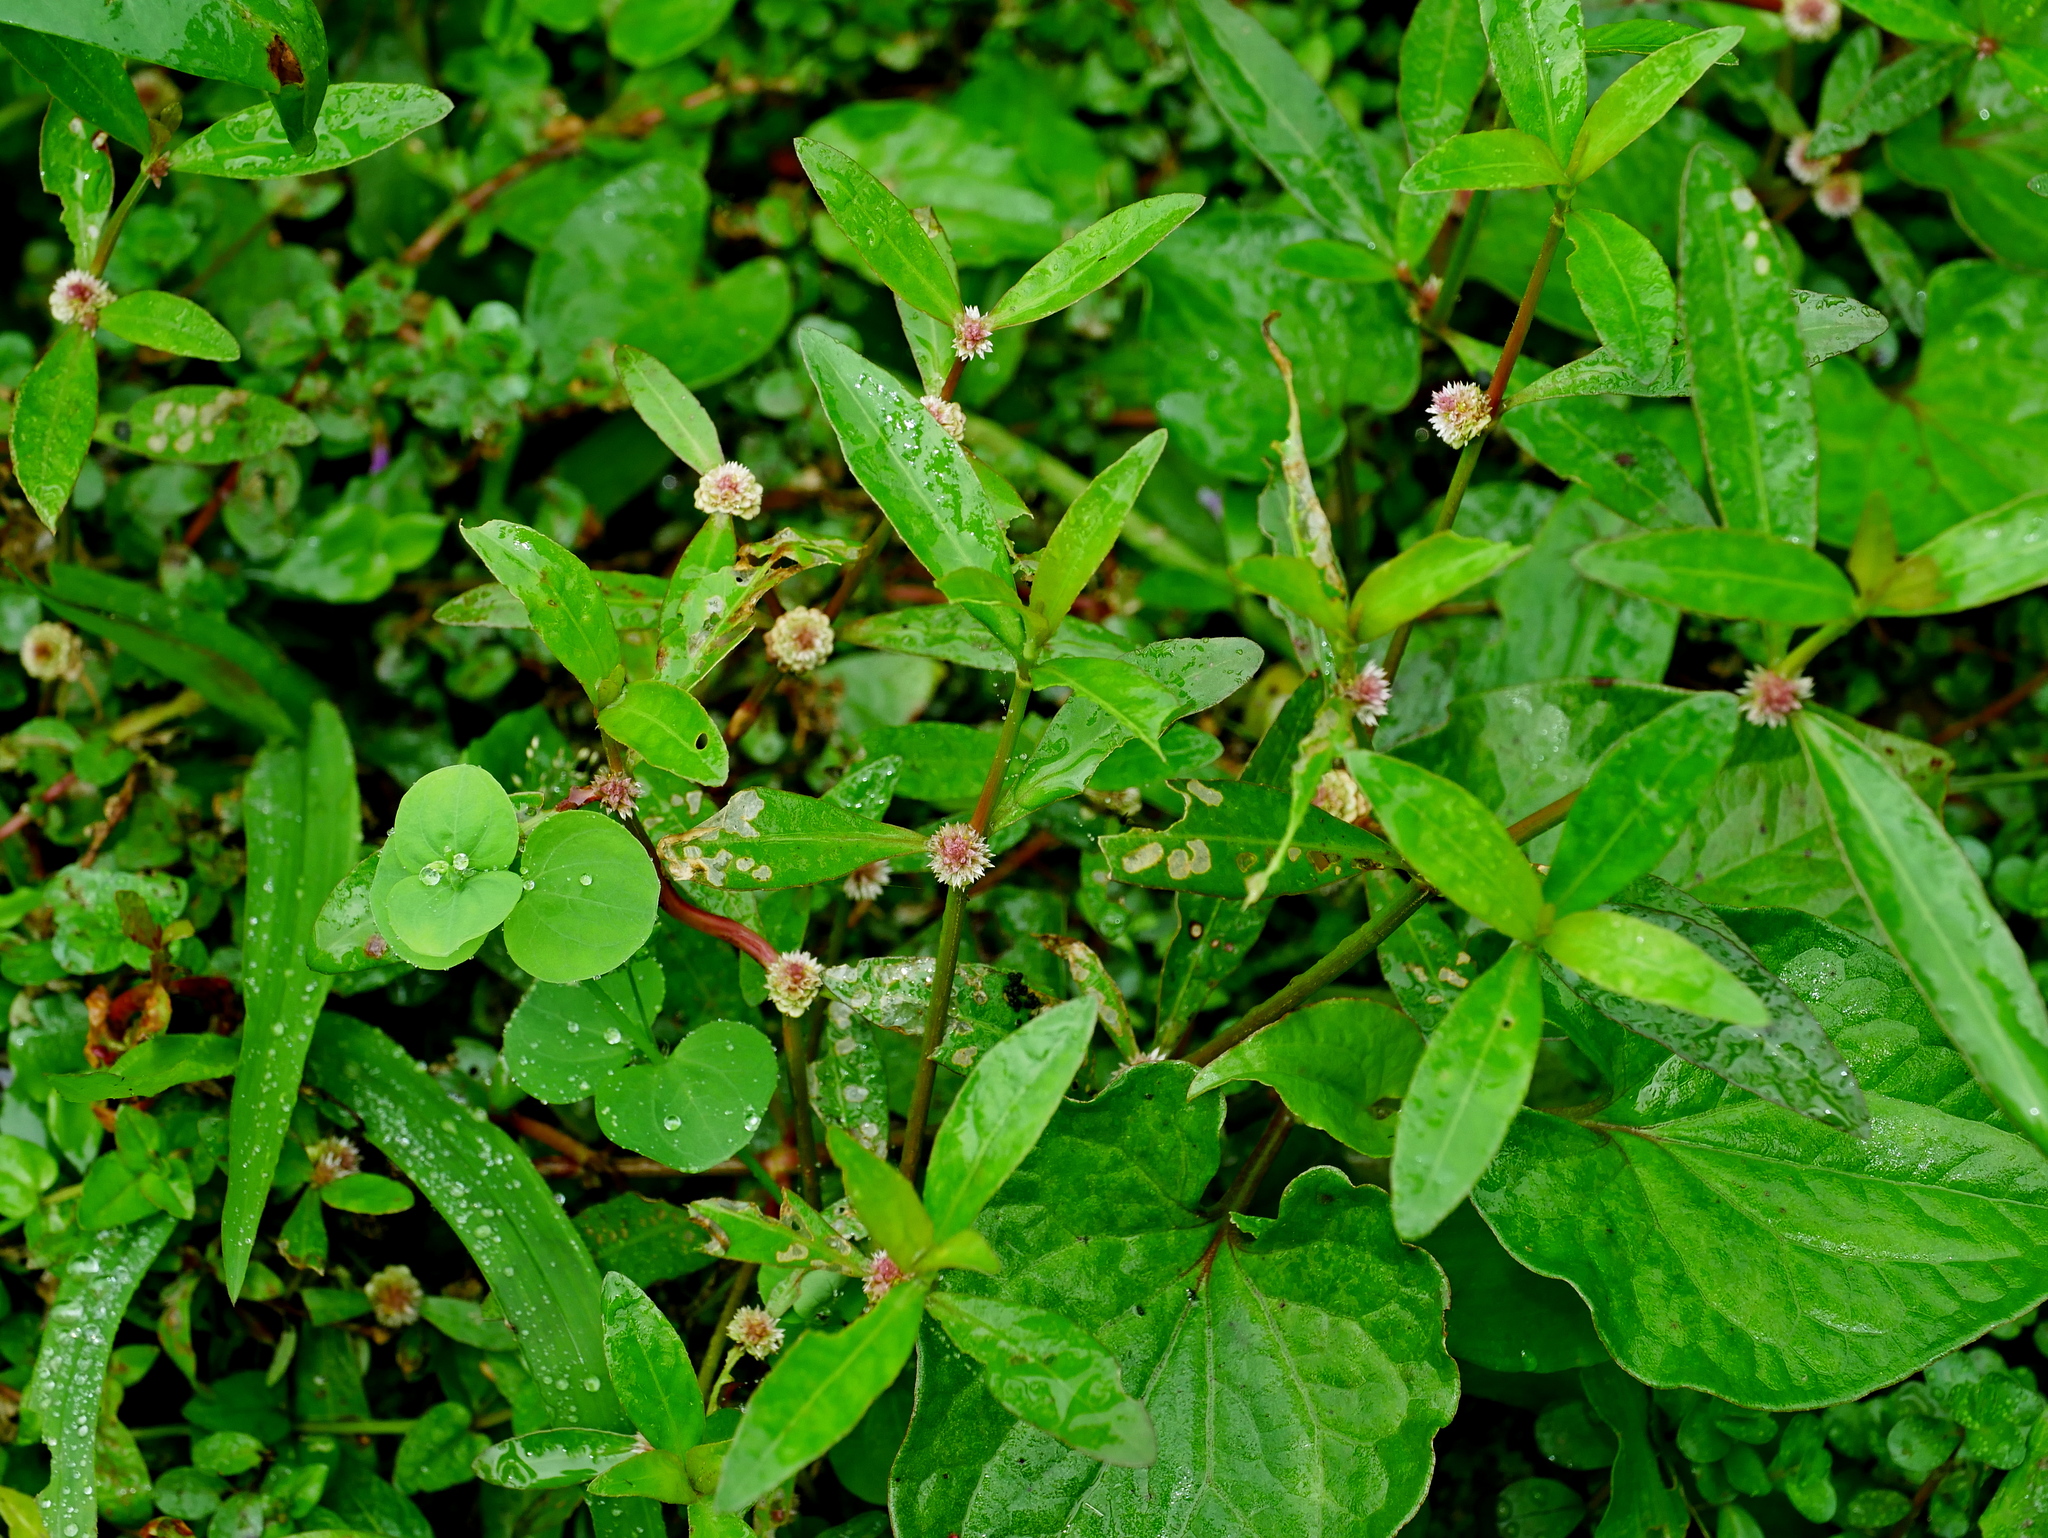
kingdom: Plantae
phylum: Tracheophyta
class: Magnoliopsida
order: Caryophyllales
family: Amaranthaceae
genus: Alternanthera
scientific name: Alternanthera sessilis
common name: Sessile joyweed
